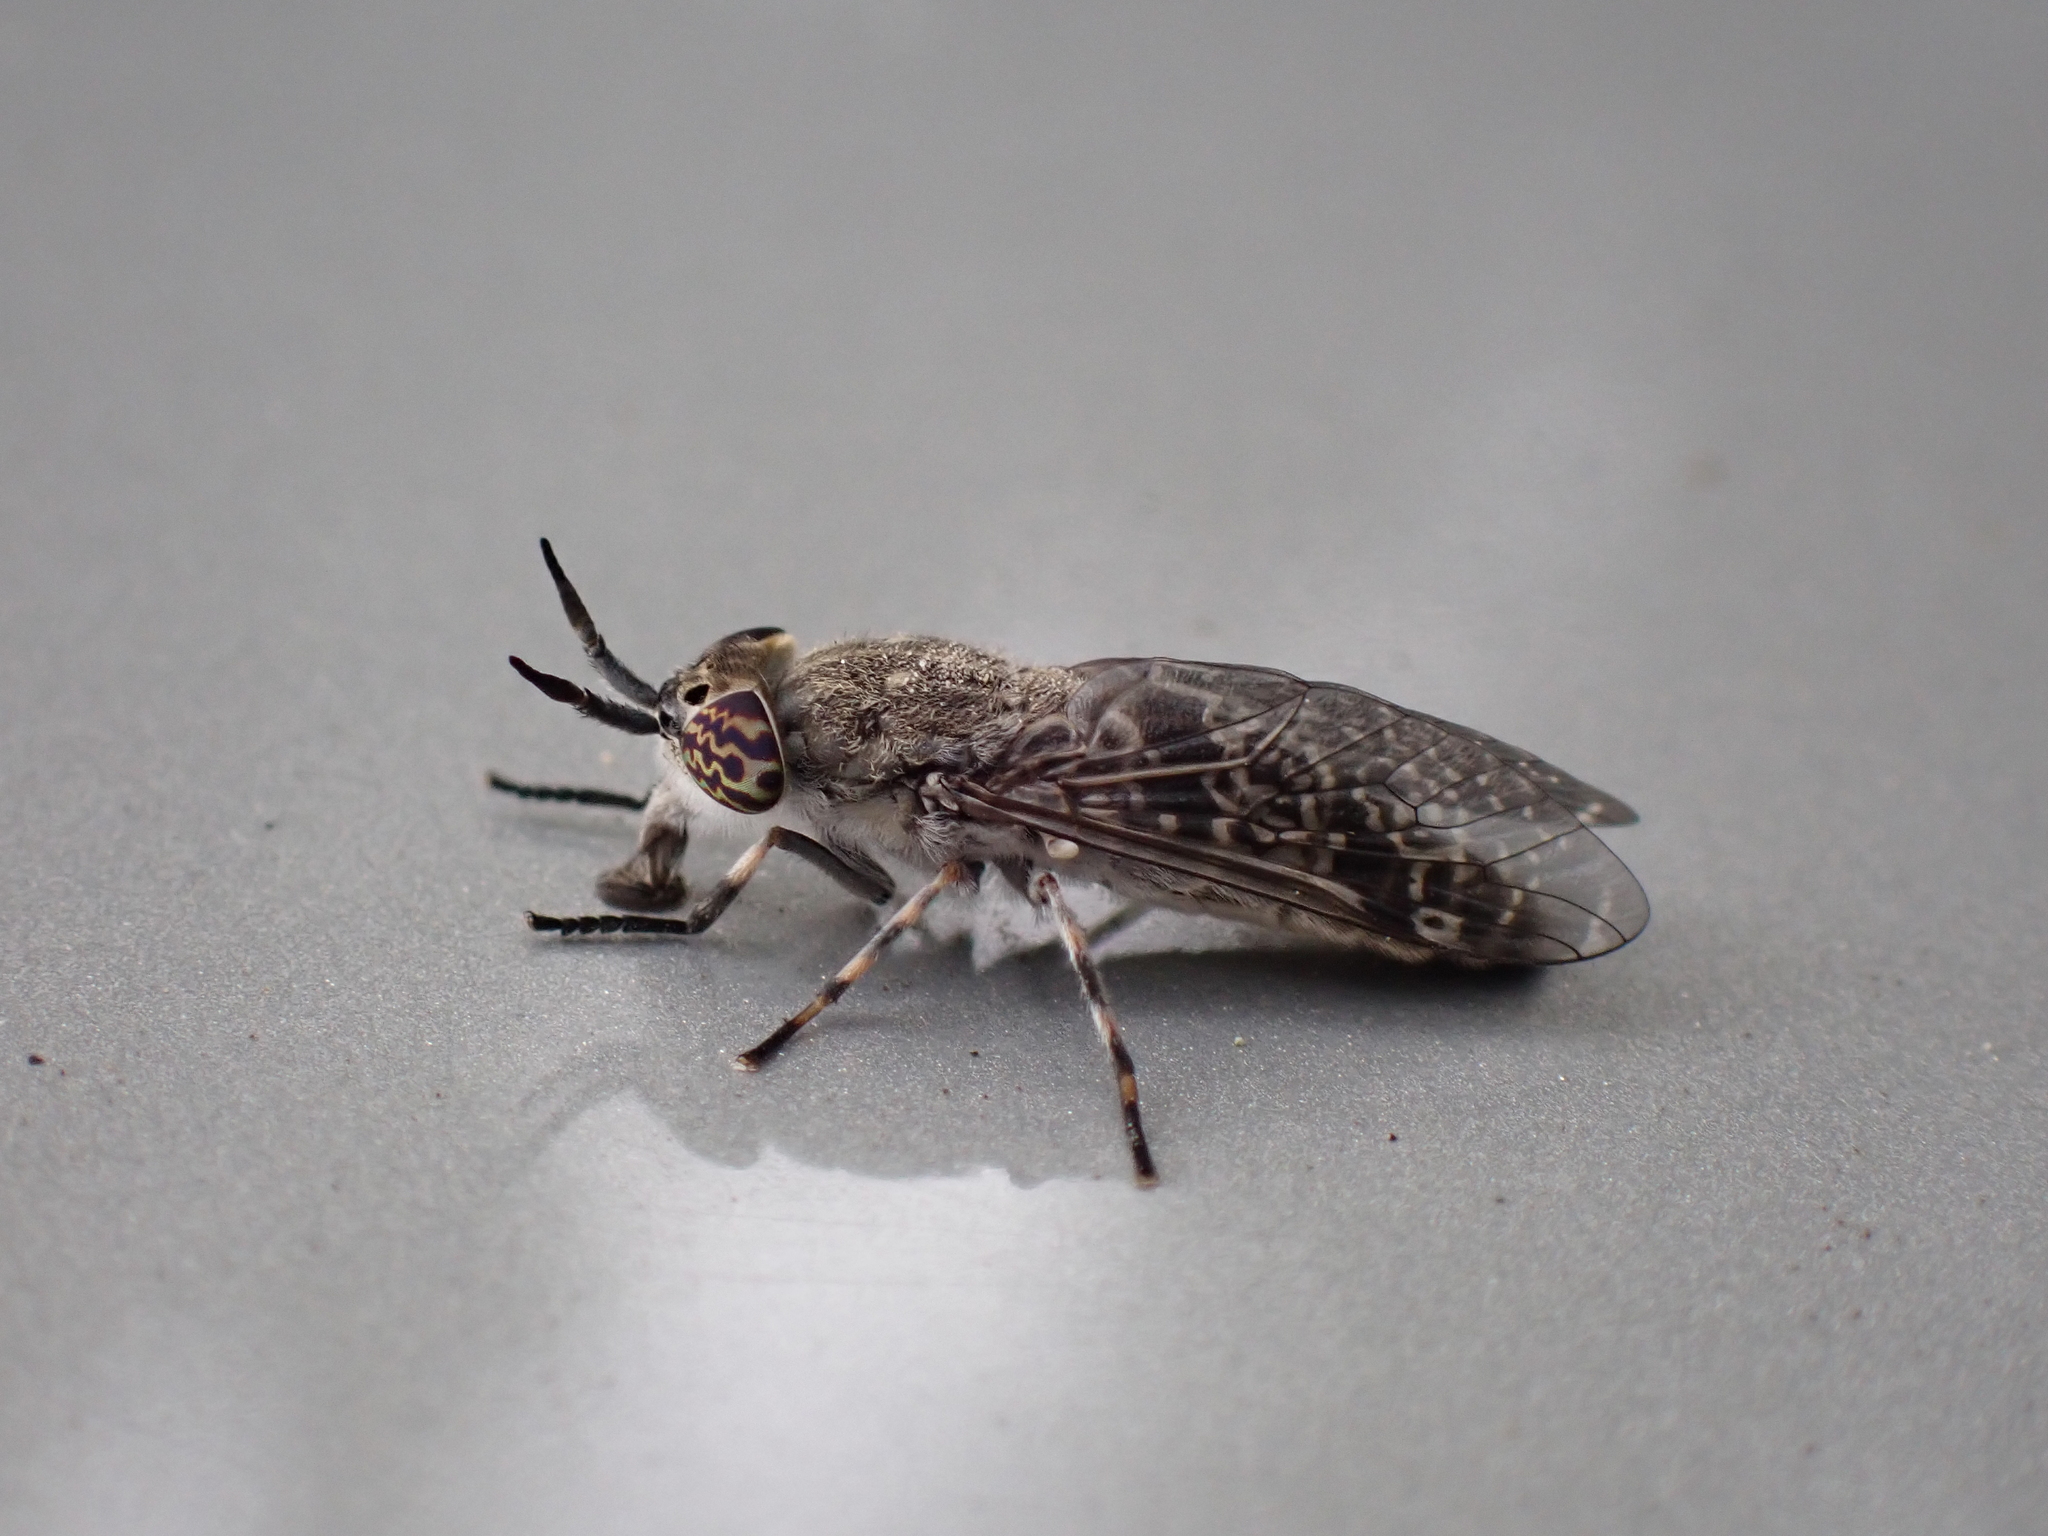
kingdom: Animalia
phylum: Arthropoda
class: Insecta
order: Diptera
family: Tabanidae
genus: Haematopota
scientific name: Haematopota italica
